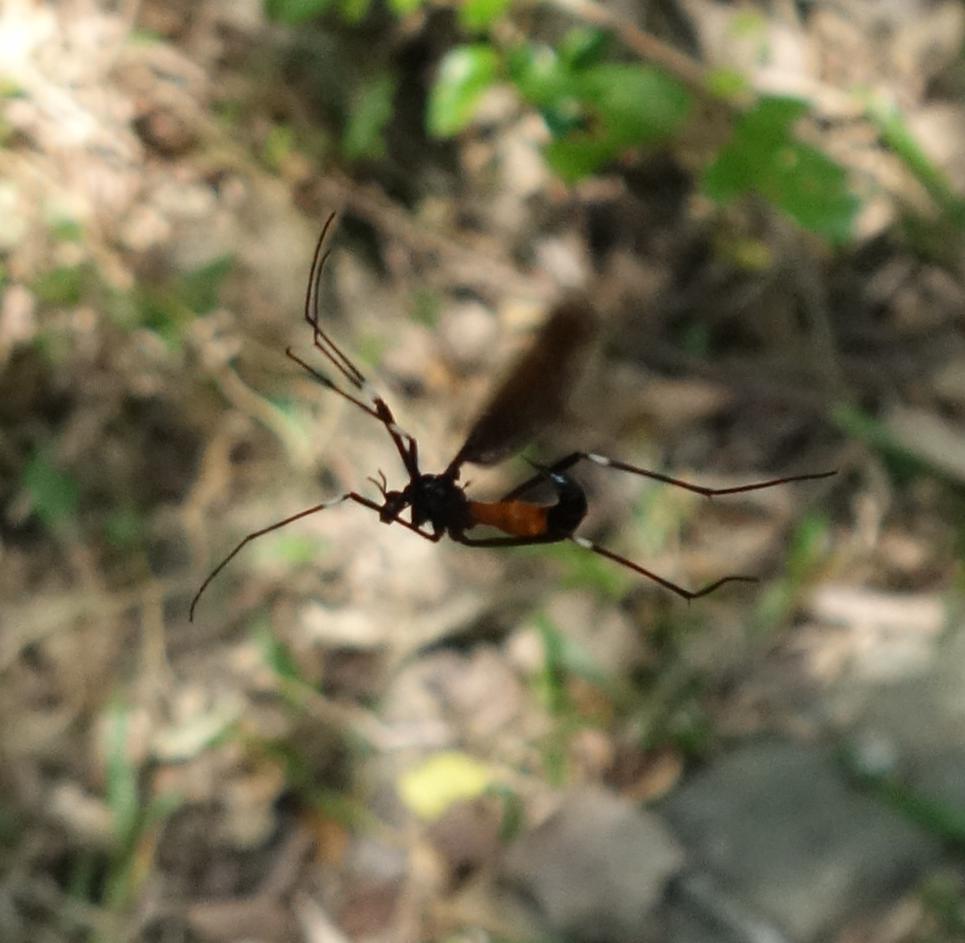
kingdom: Animalia
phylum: Arthropoda
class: Insecta
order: Diptera
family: Tipulidae
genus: Pselliophora
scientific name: Pselliophora hoppo
